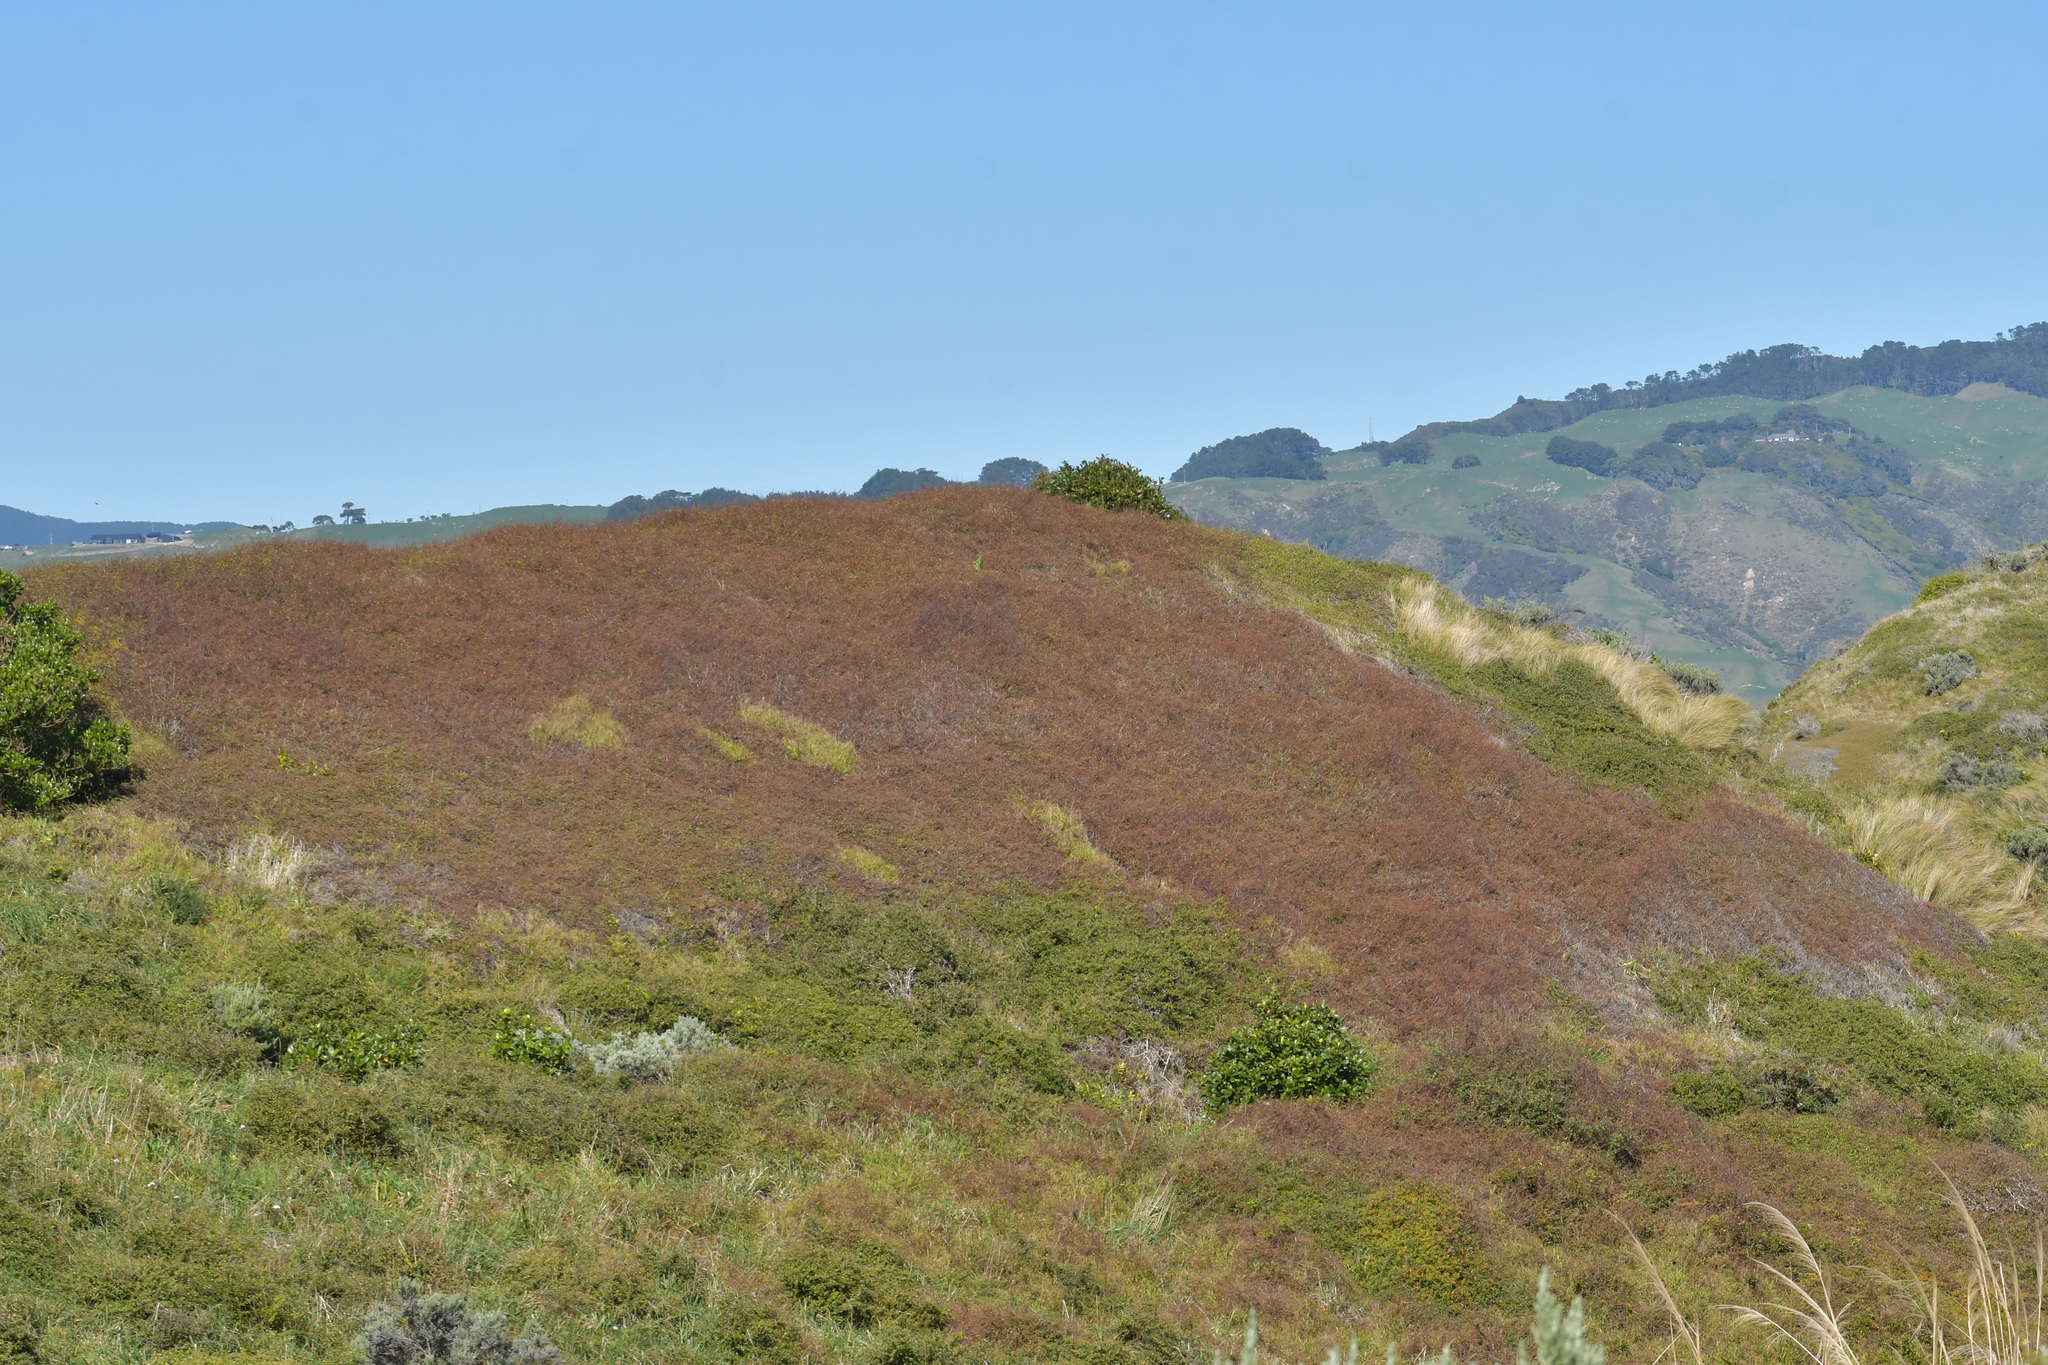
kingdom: Plantae
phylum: Tracheophyta
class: Magnoliopsida
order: Caryophyllales
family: Polygonaceae
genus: Muehlenbeckia
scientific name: Muehlenbeckia complexa
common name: Wireplant
